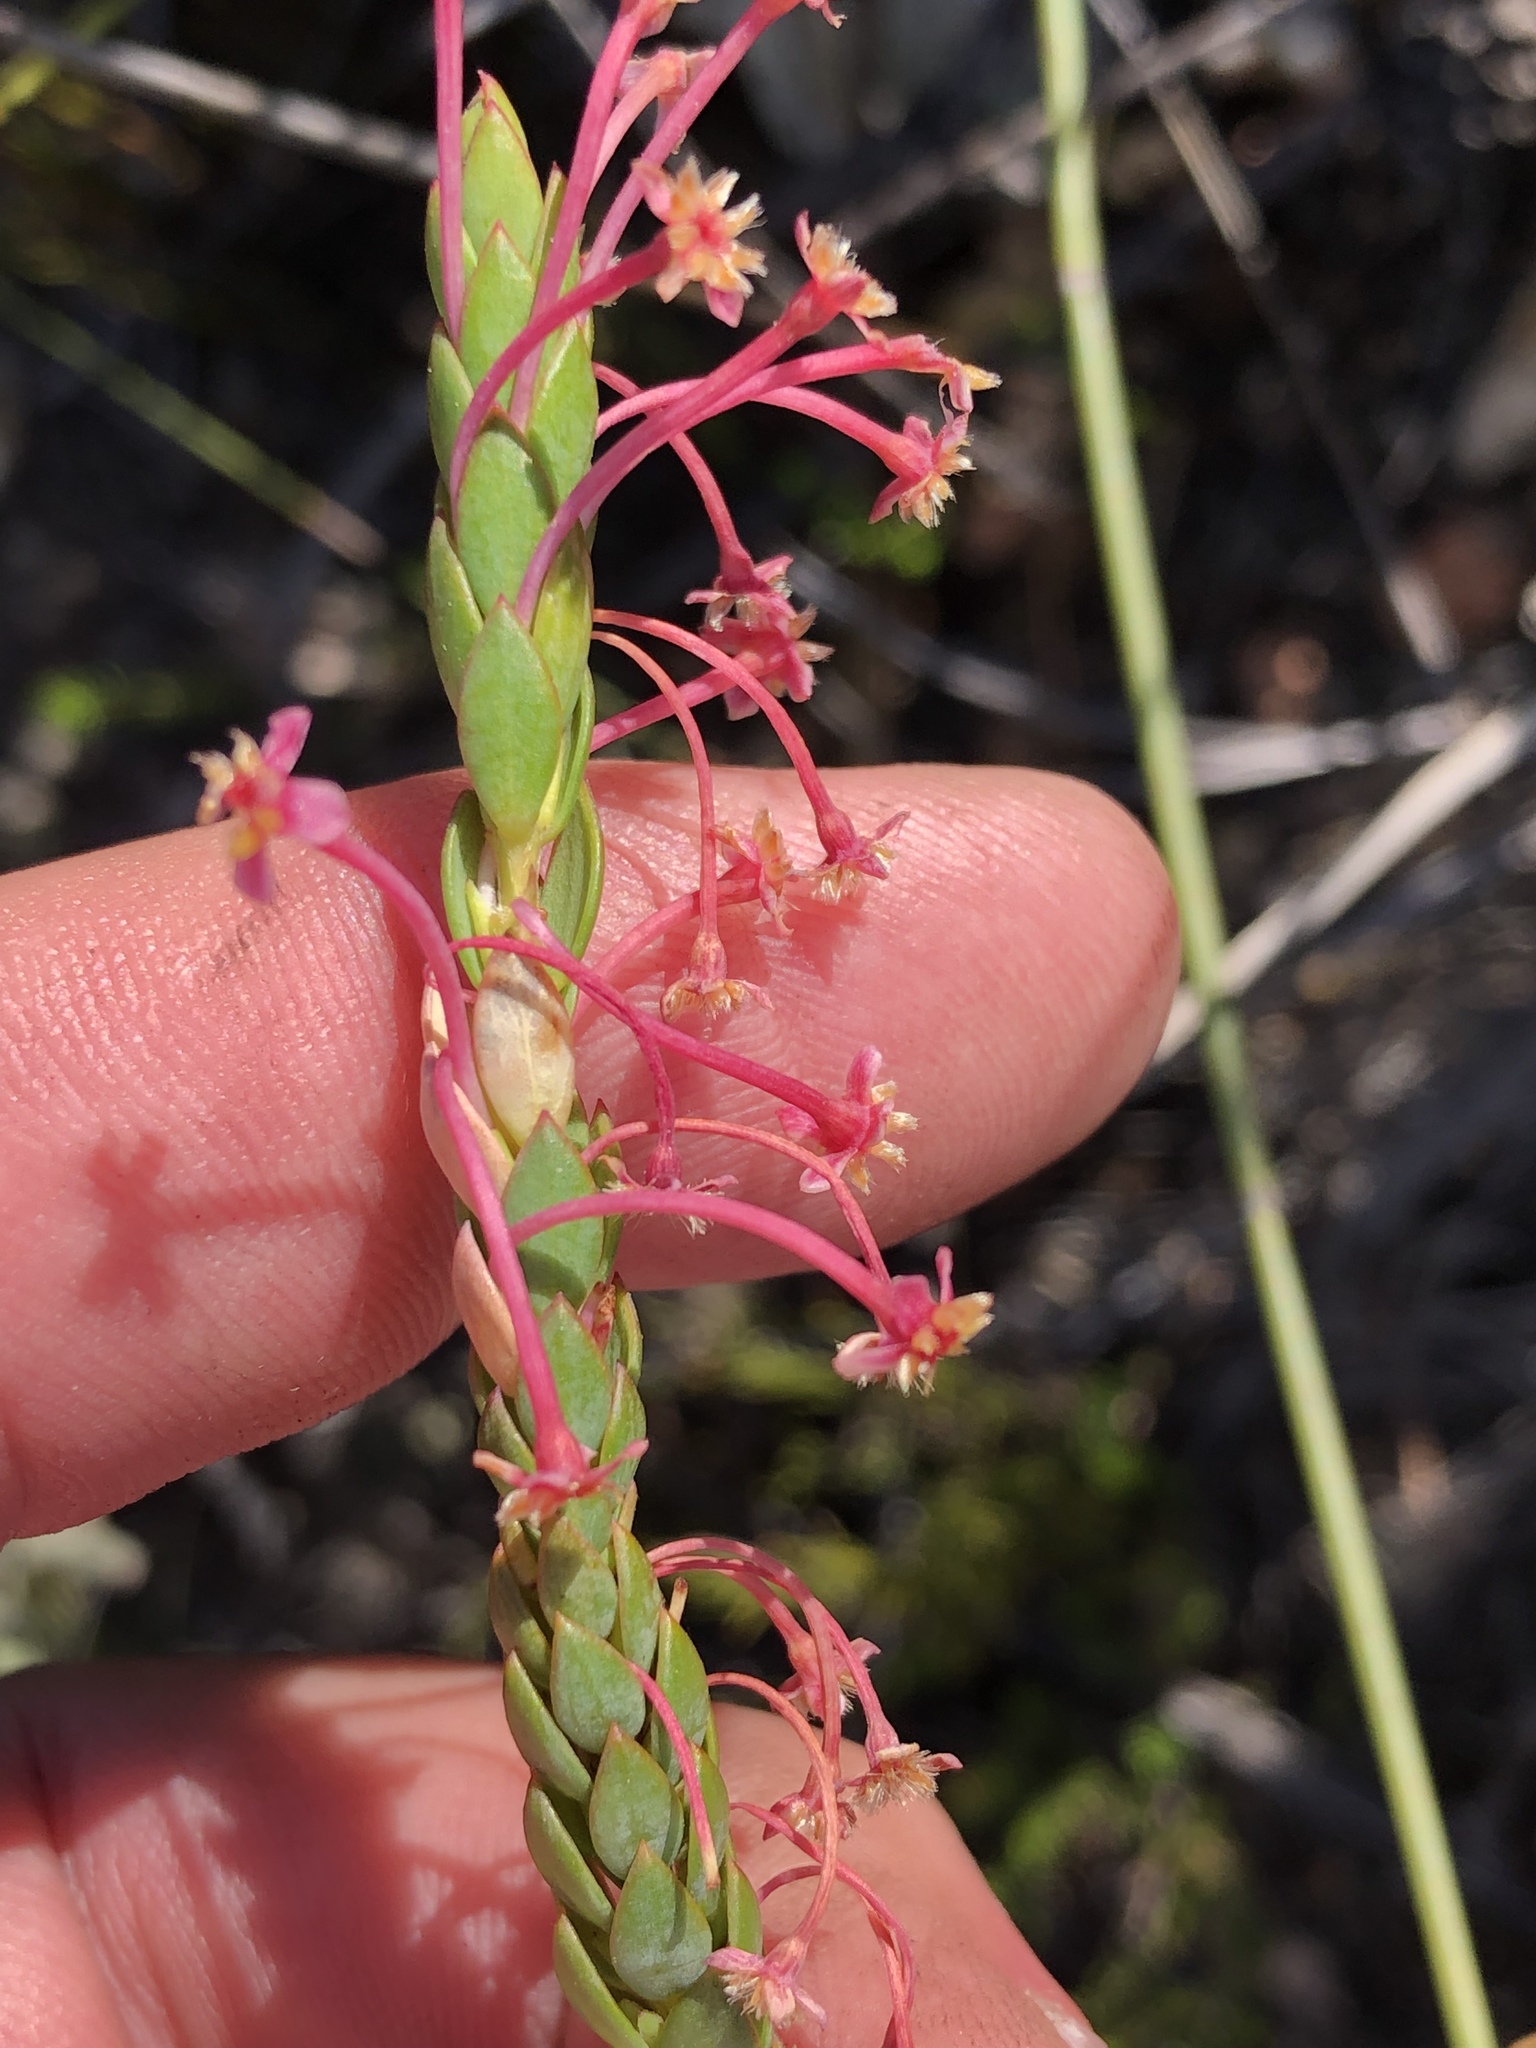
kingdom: Plantae
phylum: Tracheophyta
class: Magnoliopsida
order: Malvales
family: Thymelaeaceae
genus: Struthiola
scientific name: Struthiola macowanii
